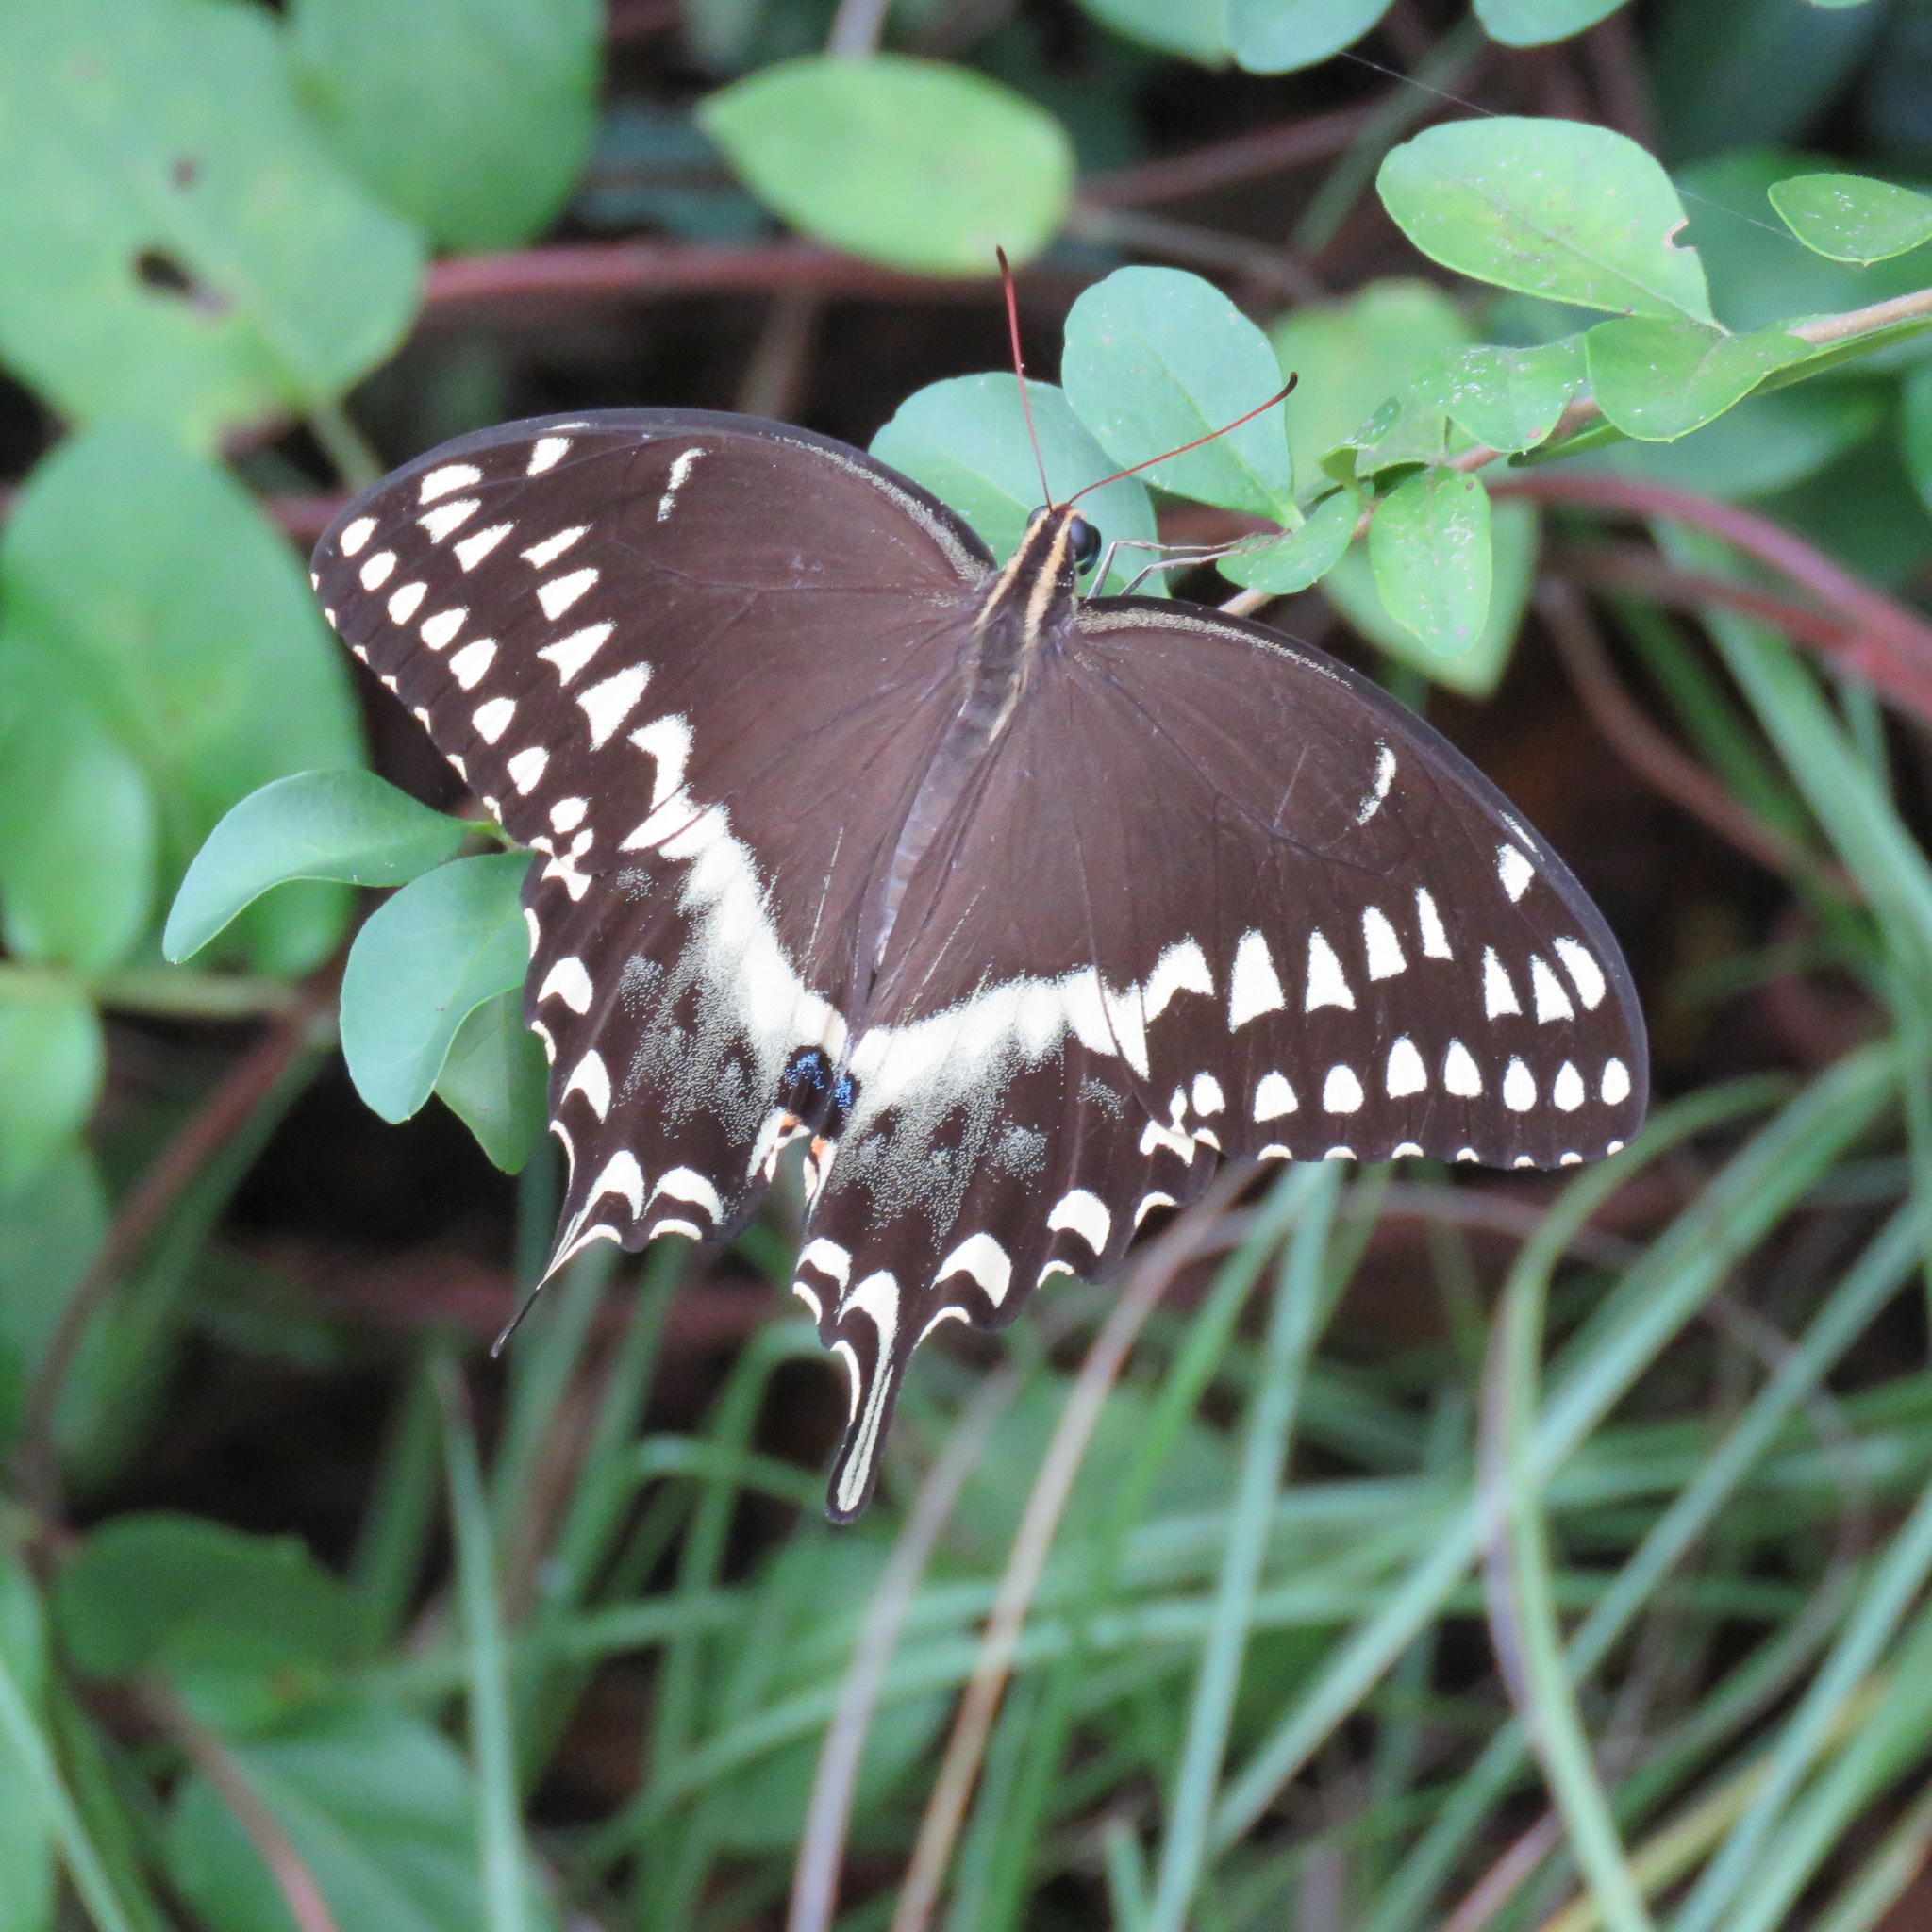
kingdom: Animalia
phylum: Arthropoda
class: Insecta
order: Lepidoptera
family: Papilionidae
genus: Papilio
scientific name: Papilio palamedes
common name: Palamedes swallowtail
